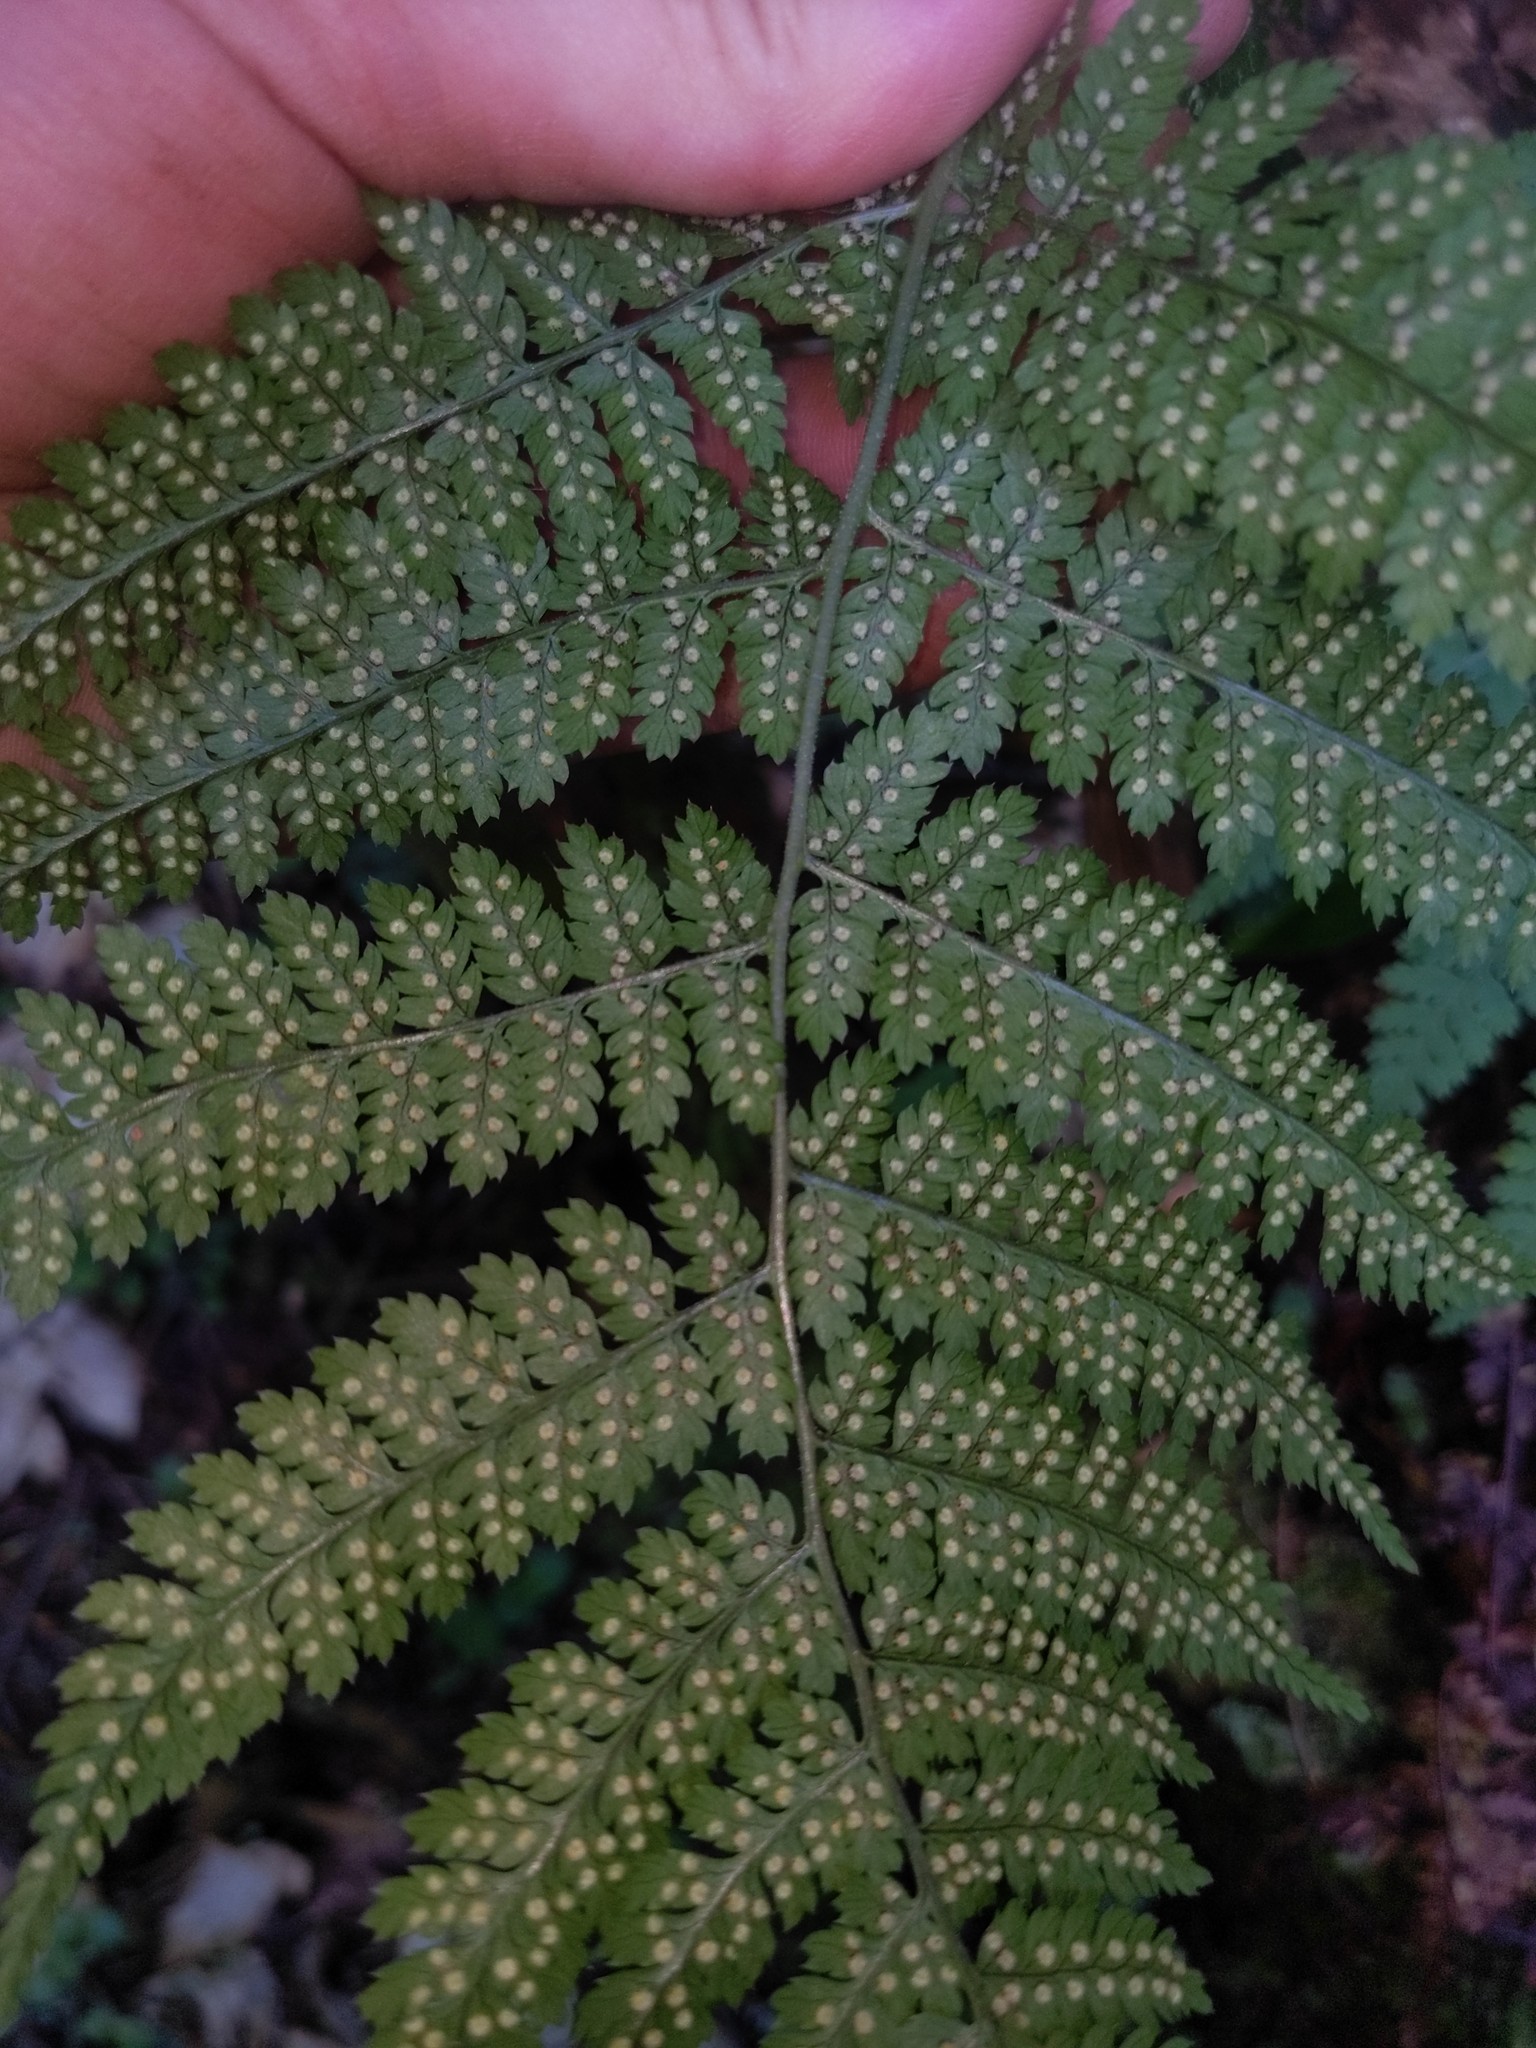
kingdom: Plantae
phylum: Tracheophyta
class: Polypodiopsida
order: Polypodiales
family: Dryopteridaceae
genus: Dryopteris
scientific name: Dryopteris intermedia
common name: Evergreen wood fern
